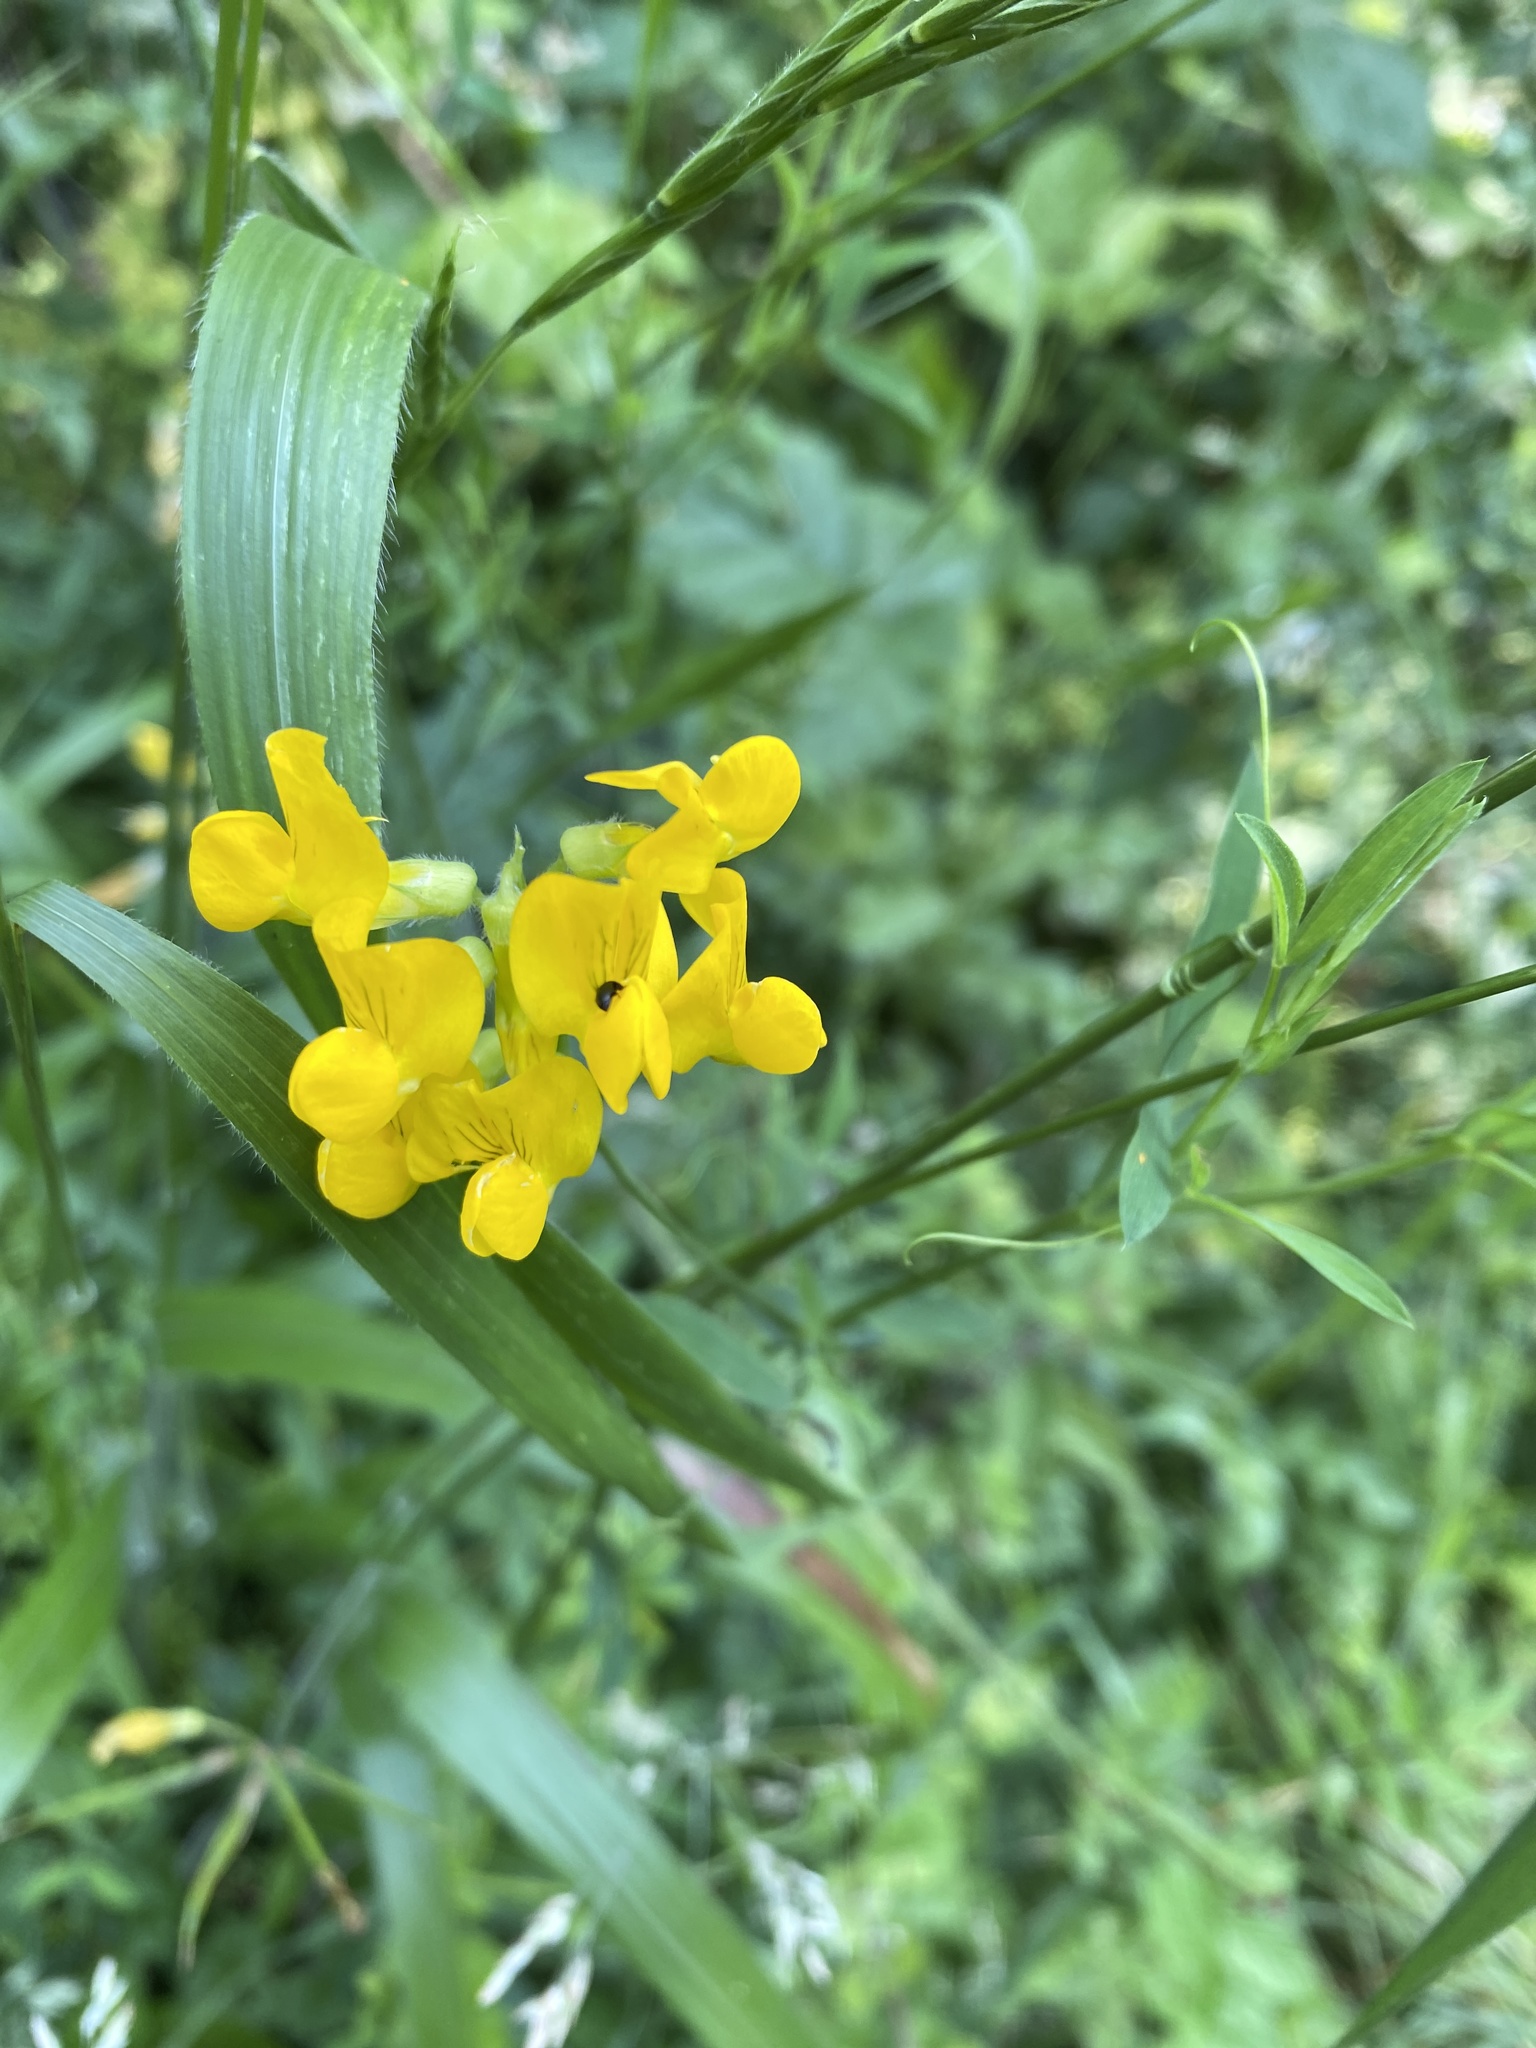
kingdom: Plantae
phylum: Tracheophyta
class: Magnoliopsida
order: Fabales
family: Fabaceae
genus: Lathyrus
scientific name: Lathyrus pratensis
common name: Meadow vetchling
